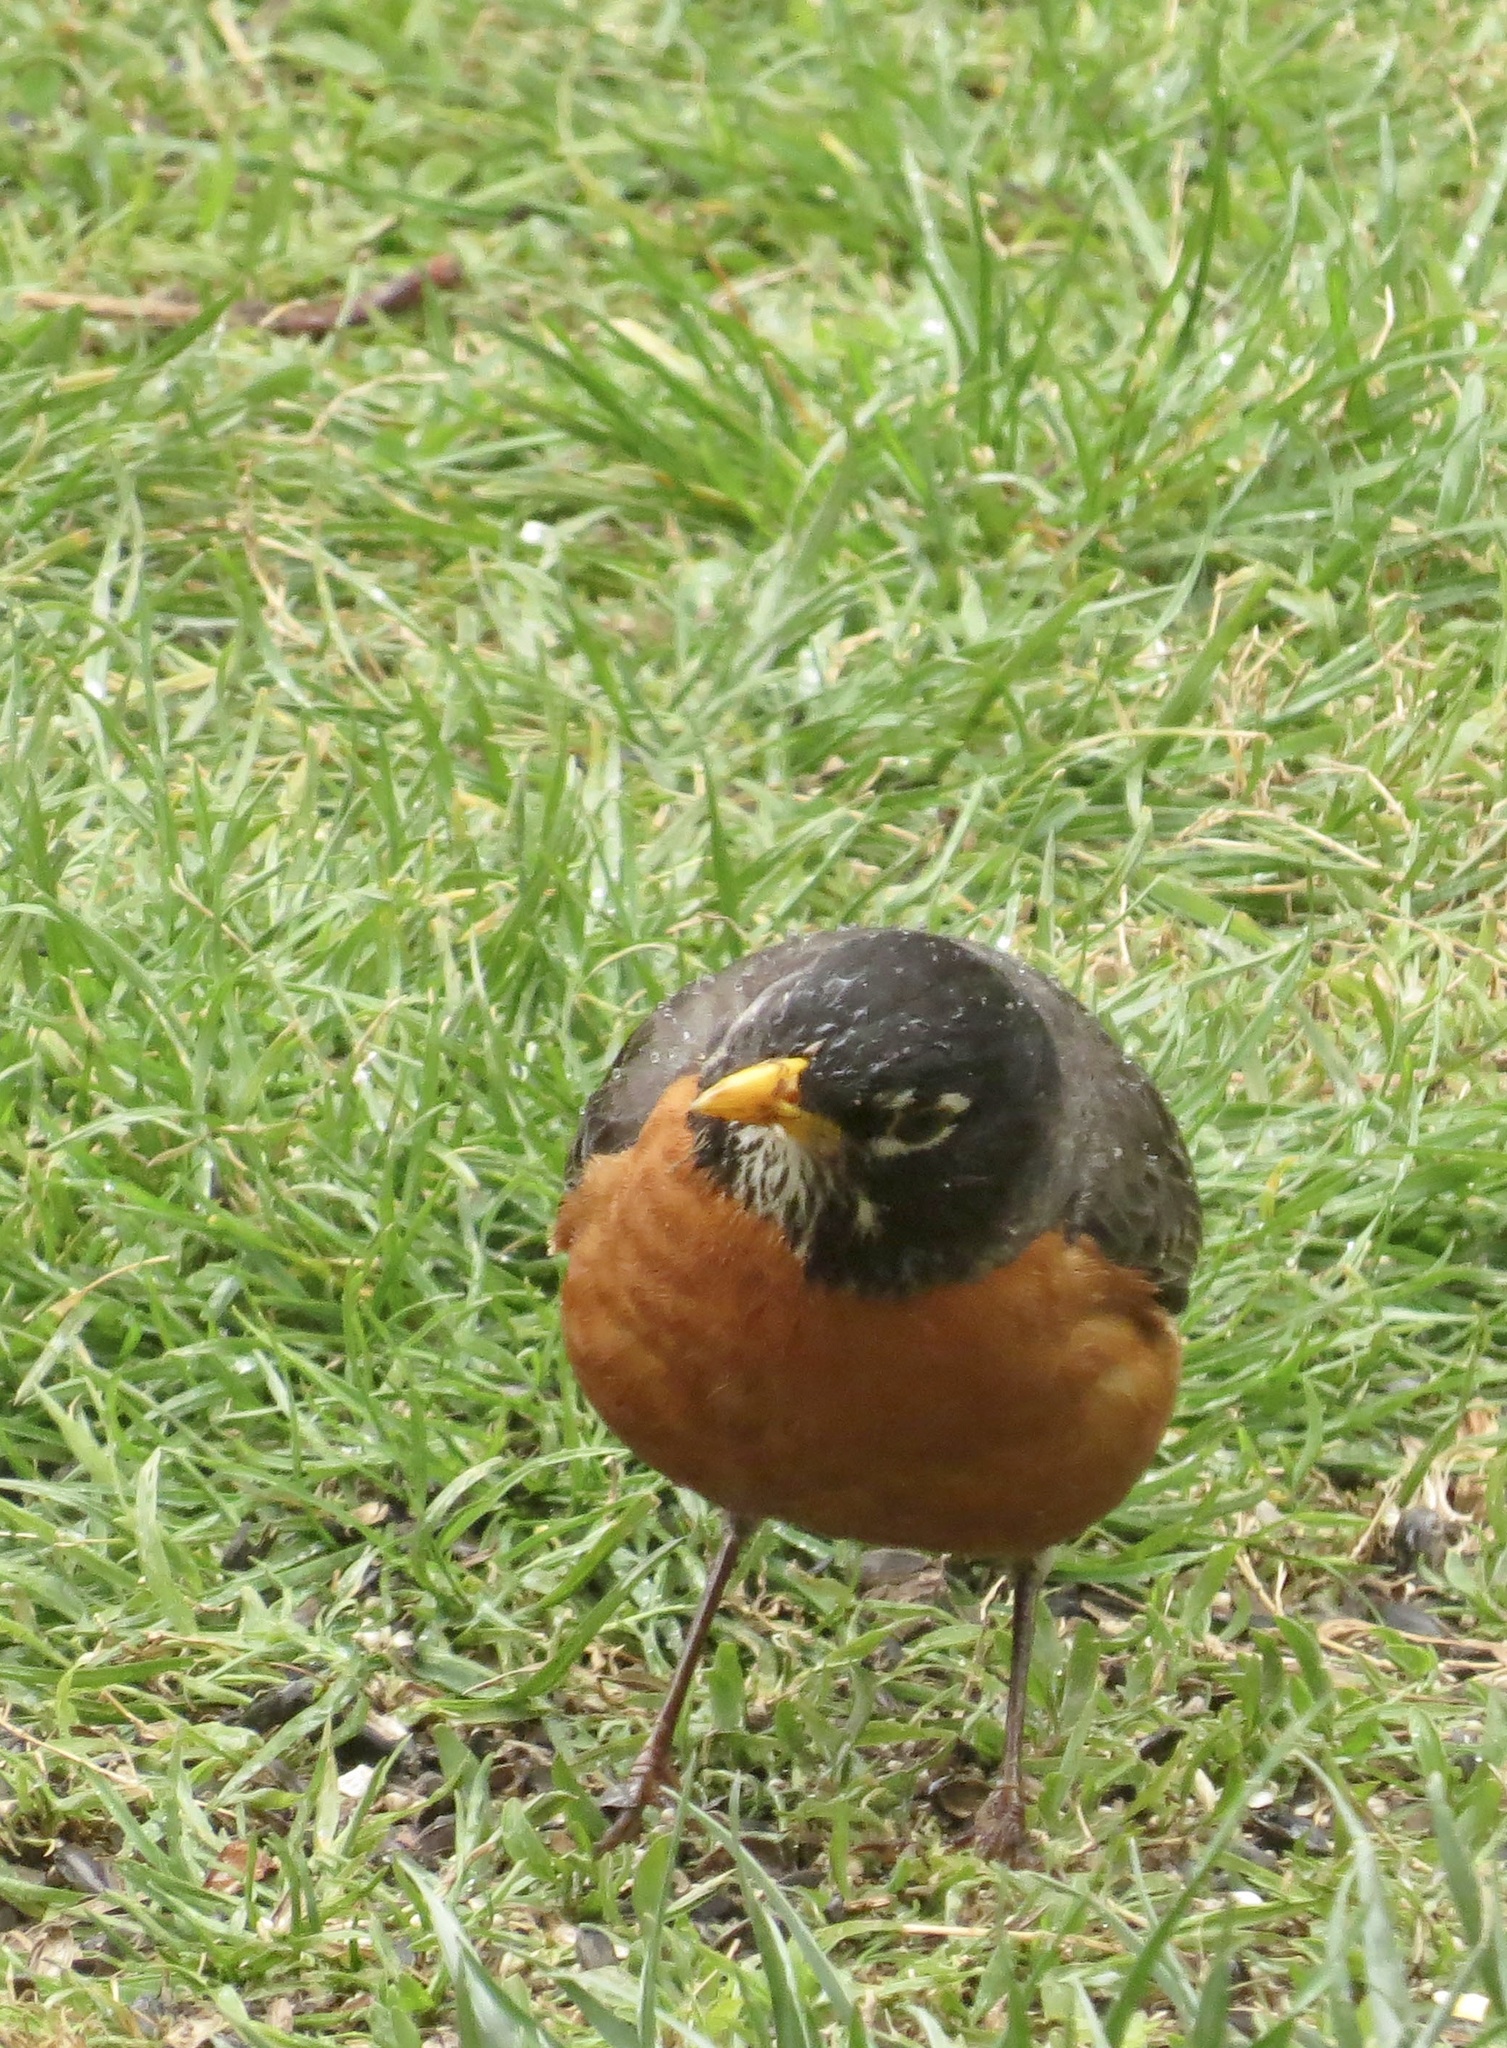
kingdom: Animalia
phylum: Chordata
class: Aves
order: Passeriformes
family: Turdidae
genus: Turdus
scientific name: Turdus migratorius
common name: American robin
